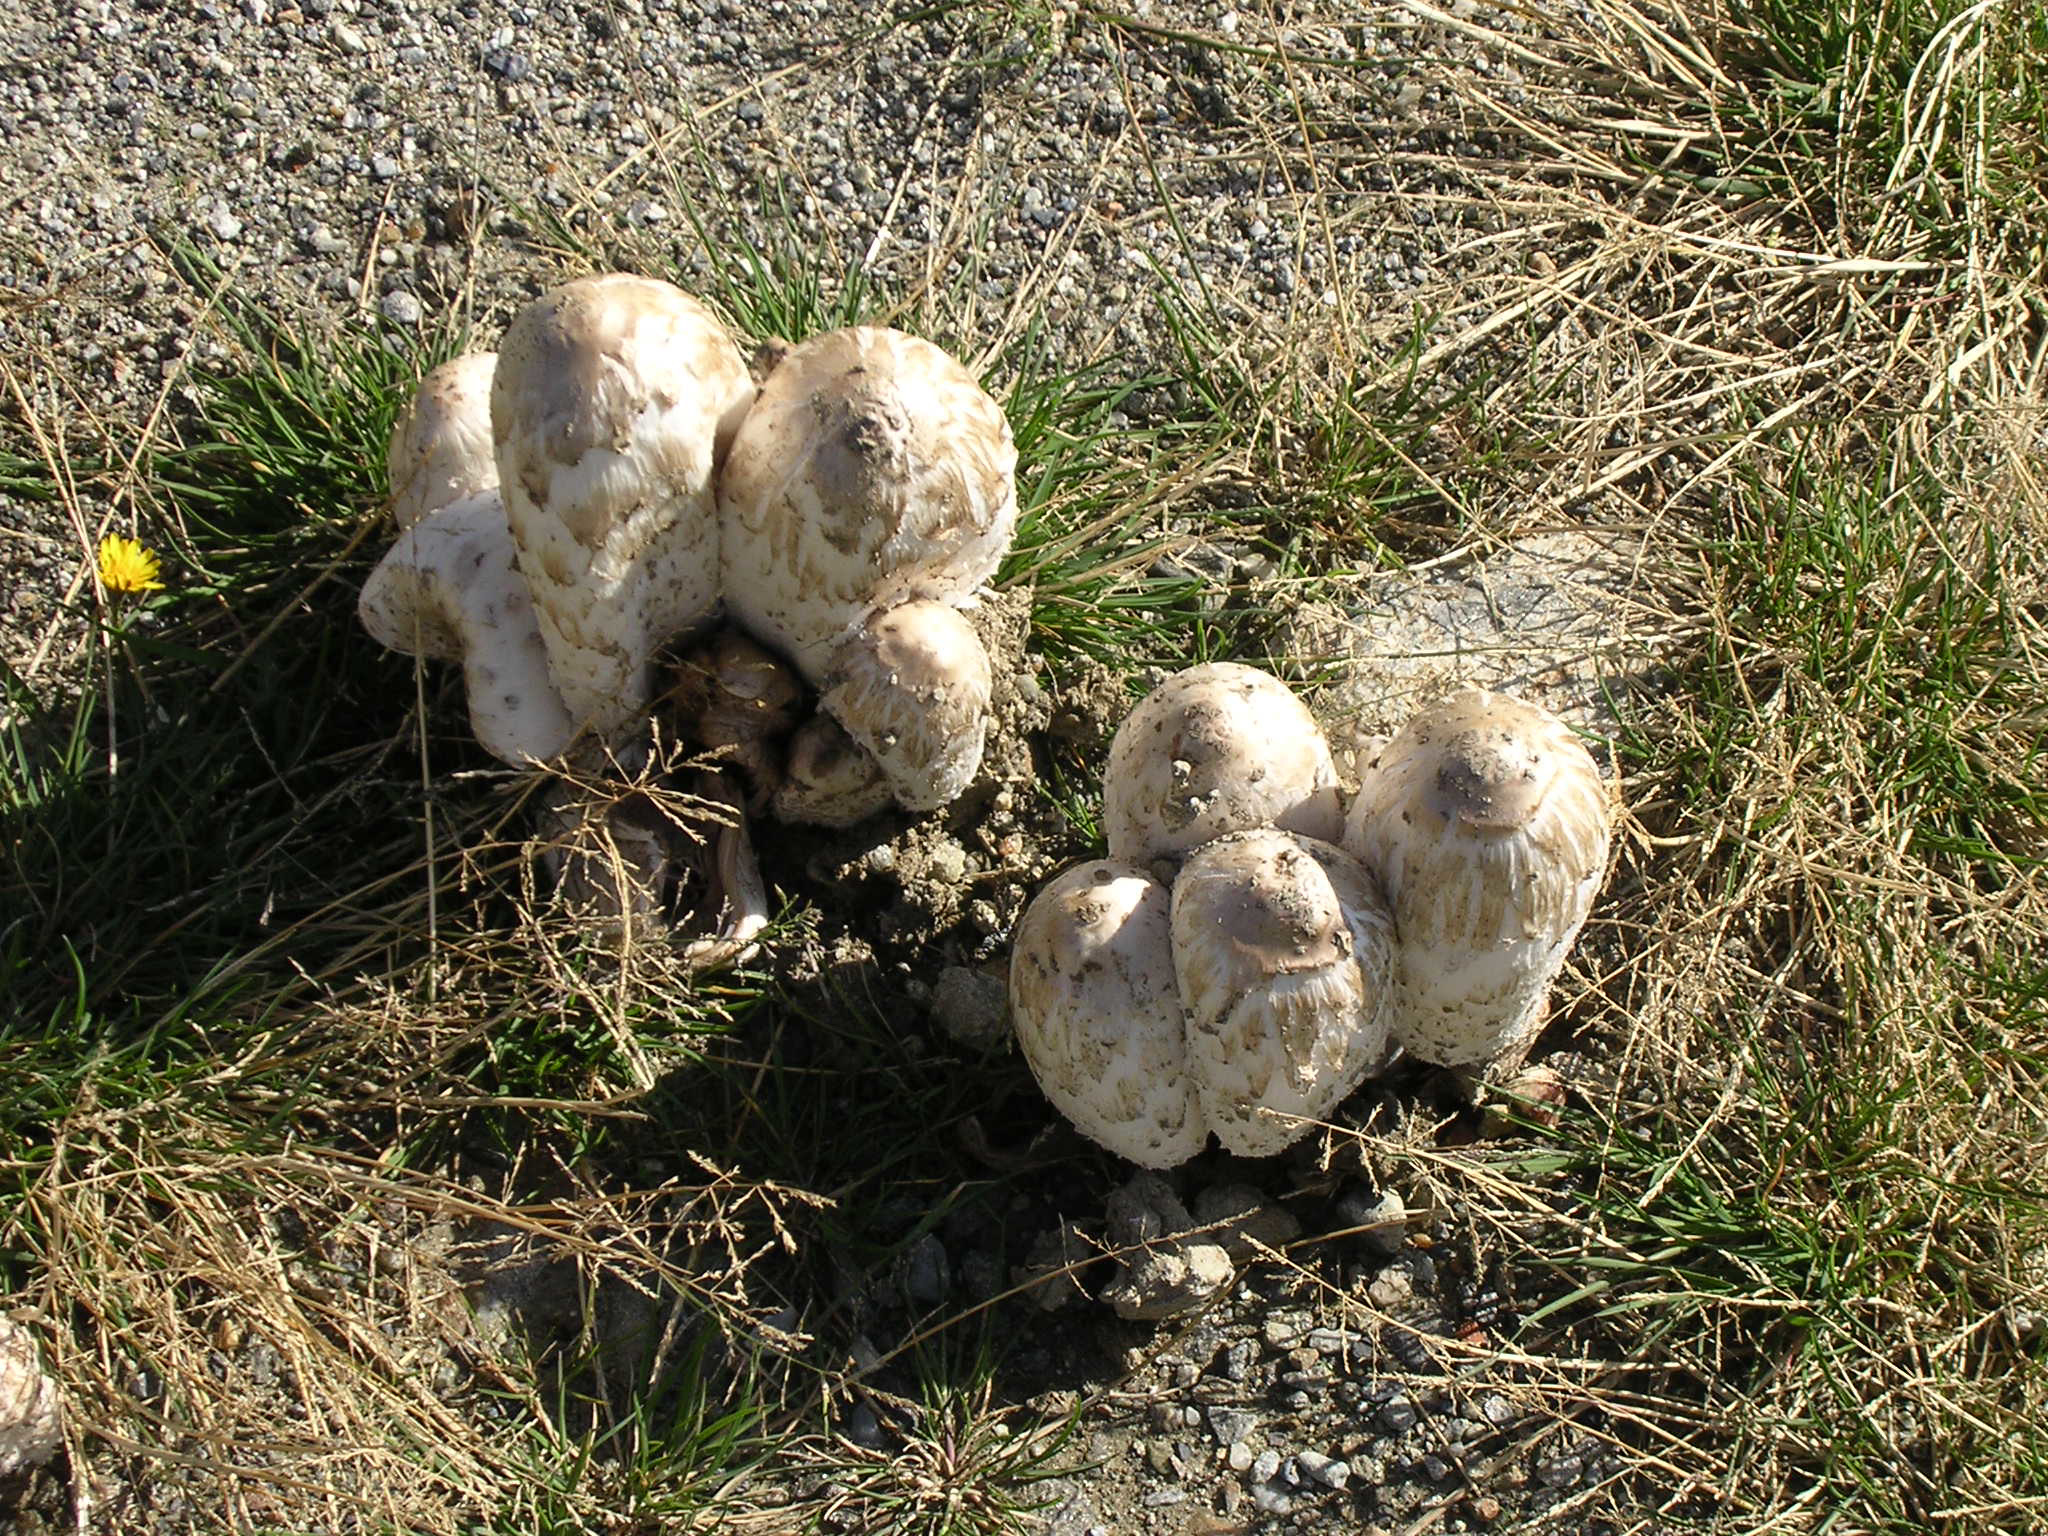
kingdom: Fungi
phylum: Basidiomycota
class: Agaricomycetes
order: Agaricales
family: Agaricaceae
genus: Coprinus
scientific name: Coprinus comatus
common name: Lawyer's wig
